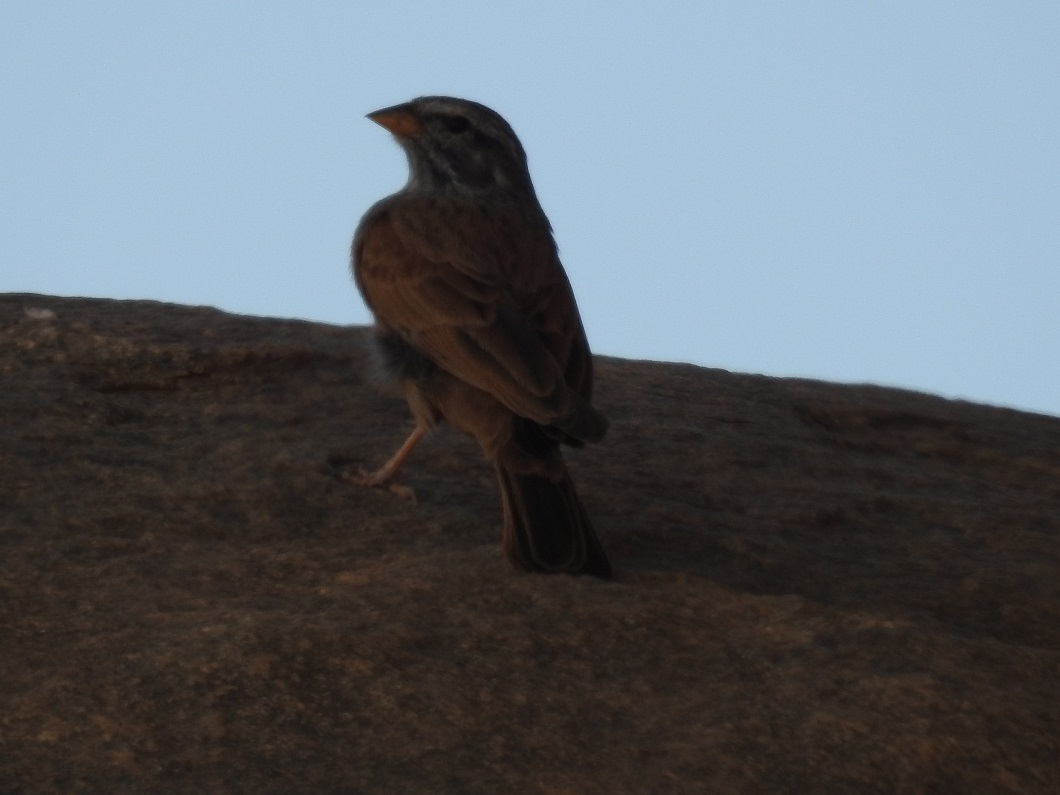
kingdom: Animalia
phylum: Chordata
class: Aves
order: Passeriformes
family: Emberizidae
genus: Emberiza
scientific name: Emberiza sahari
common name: House bunting
